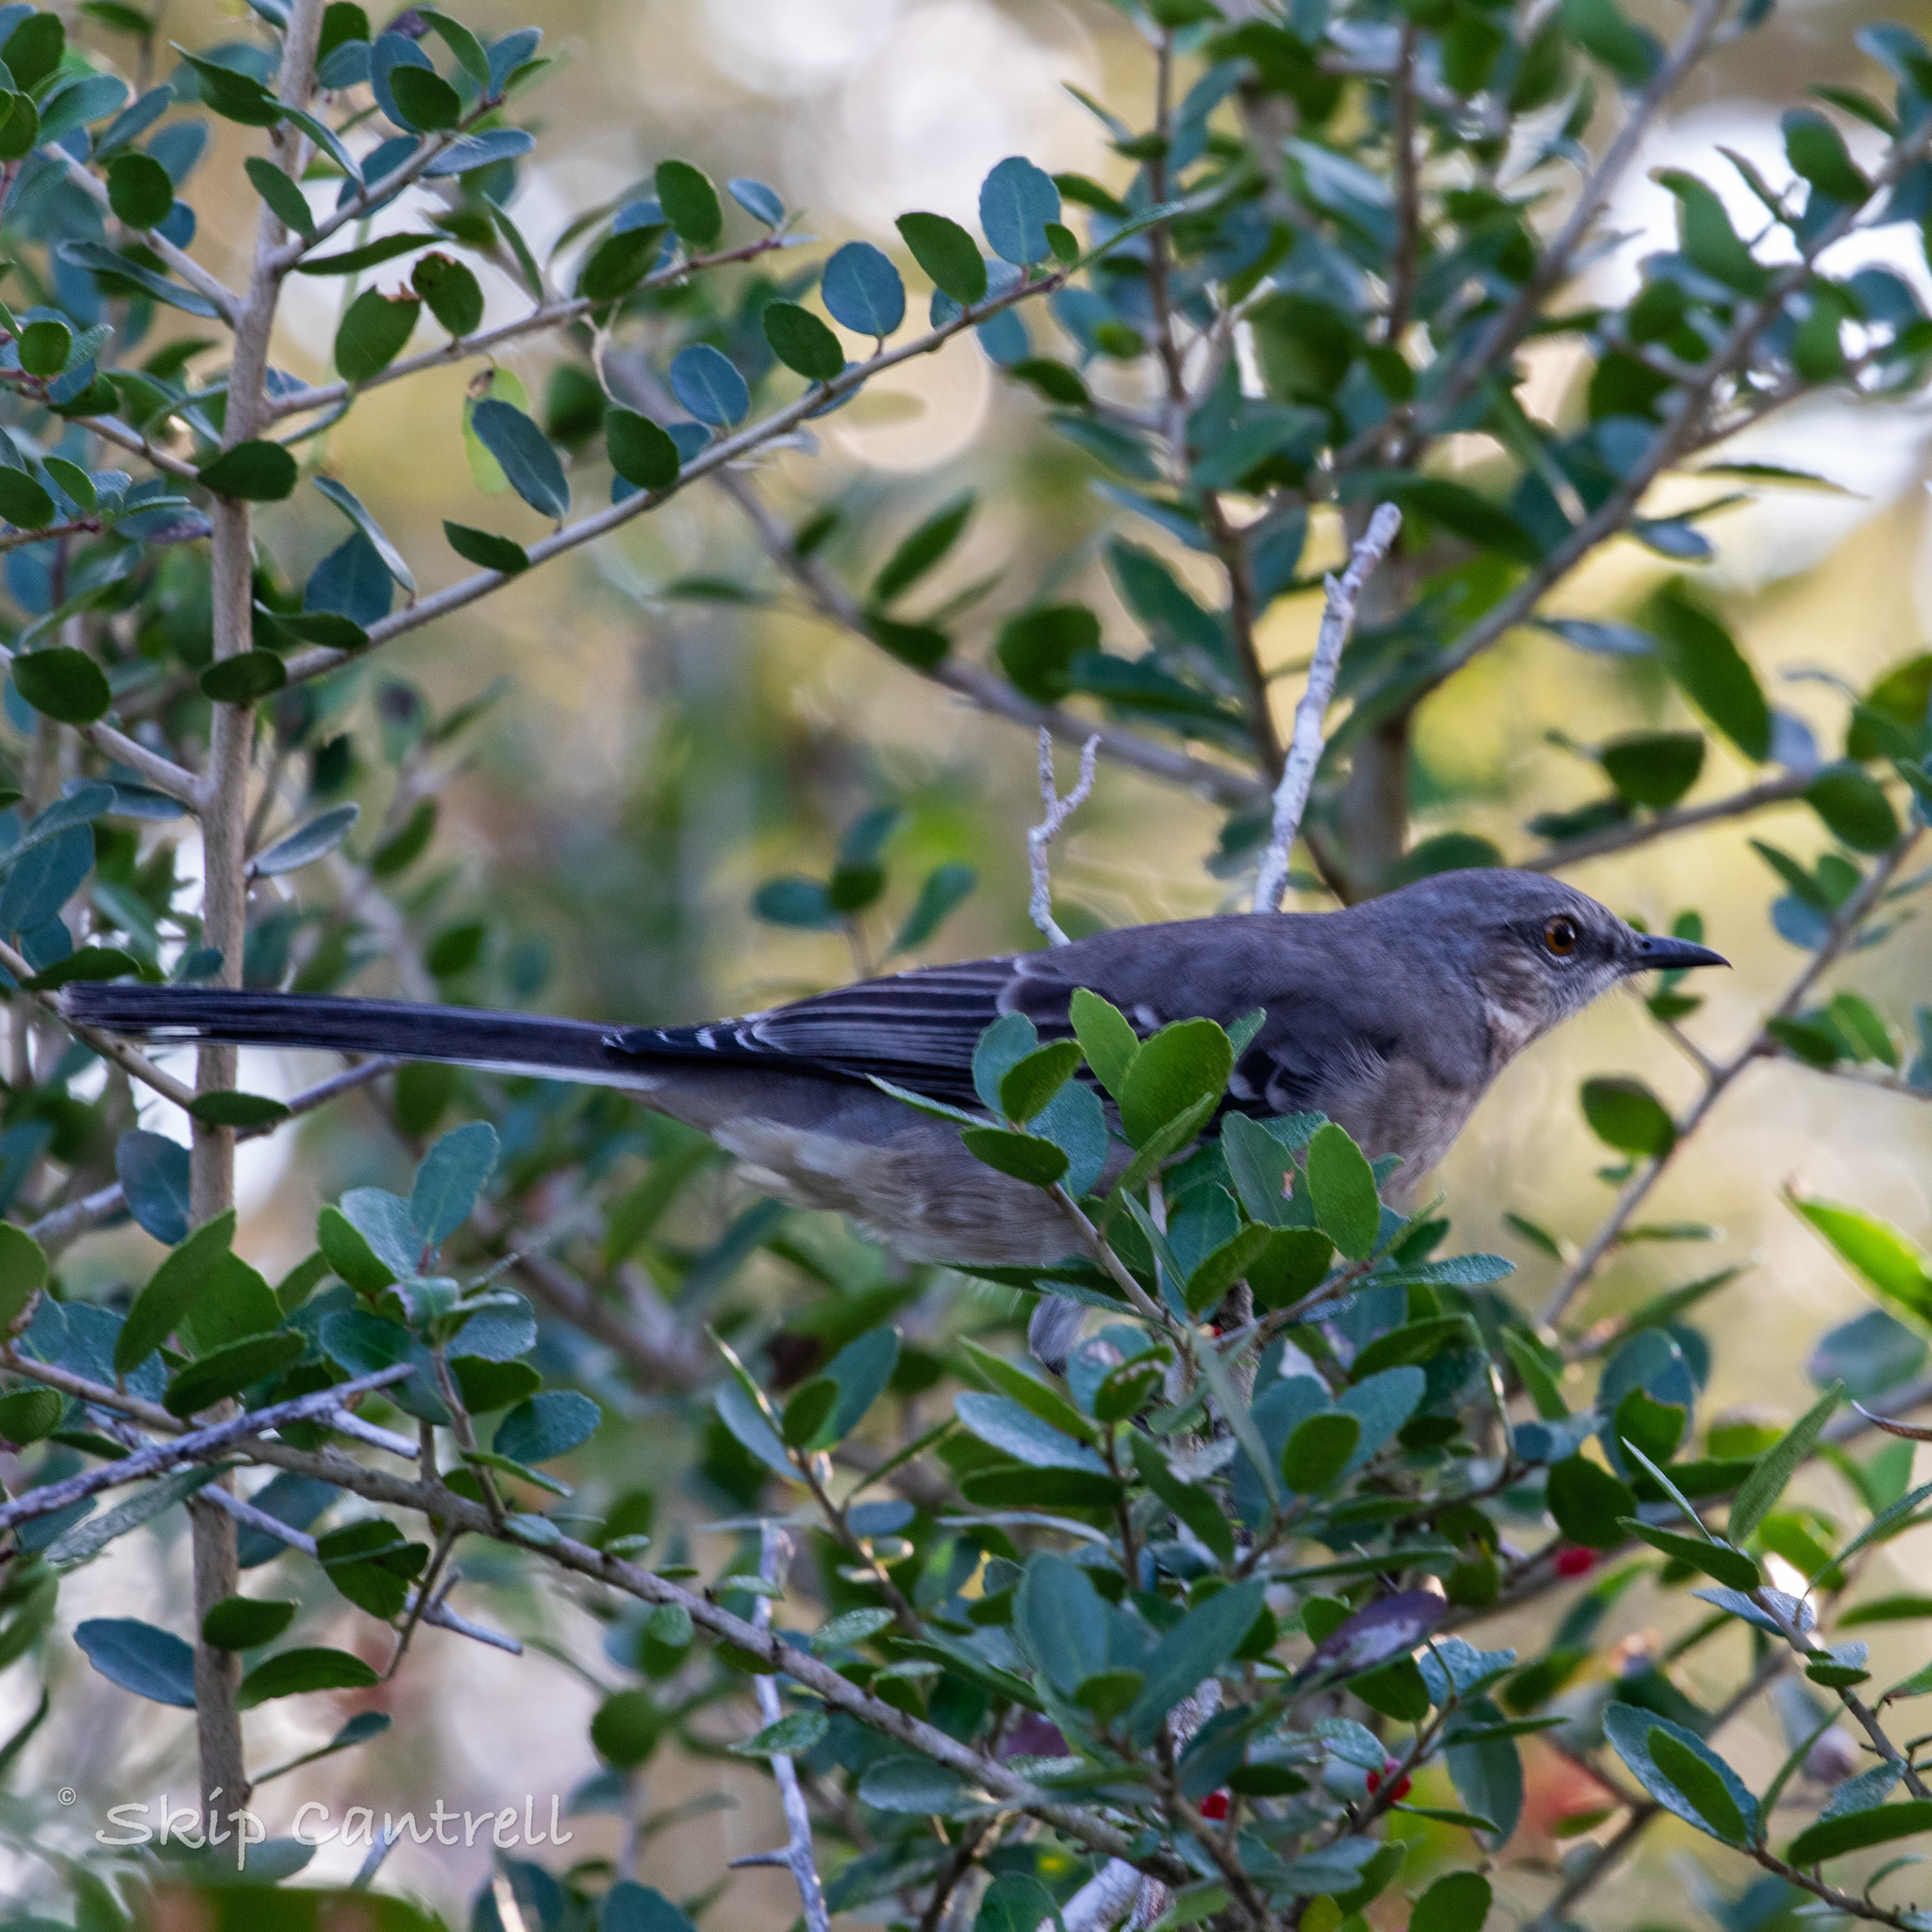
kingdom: Animalia
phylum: Chordata
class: Aves
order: Passeriformes
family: Mimidae
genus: Mimus
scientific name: Mimus polyglottos
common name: Northern mockingbird
